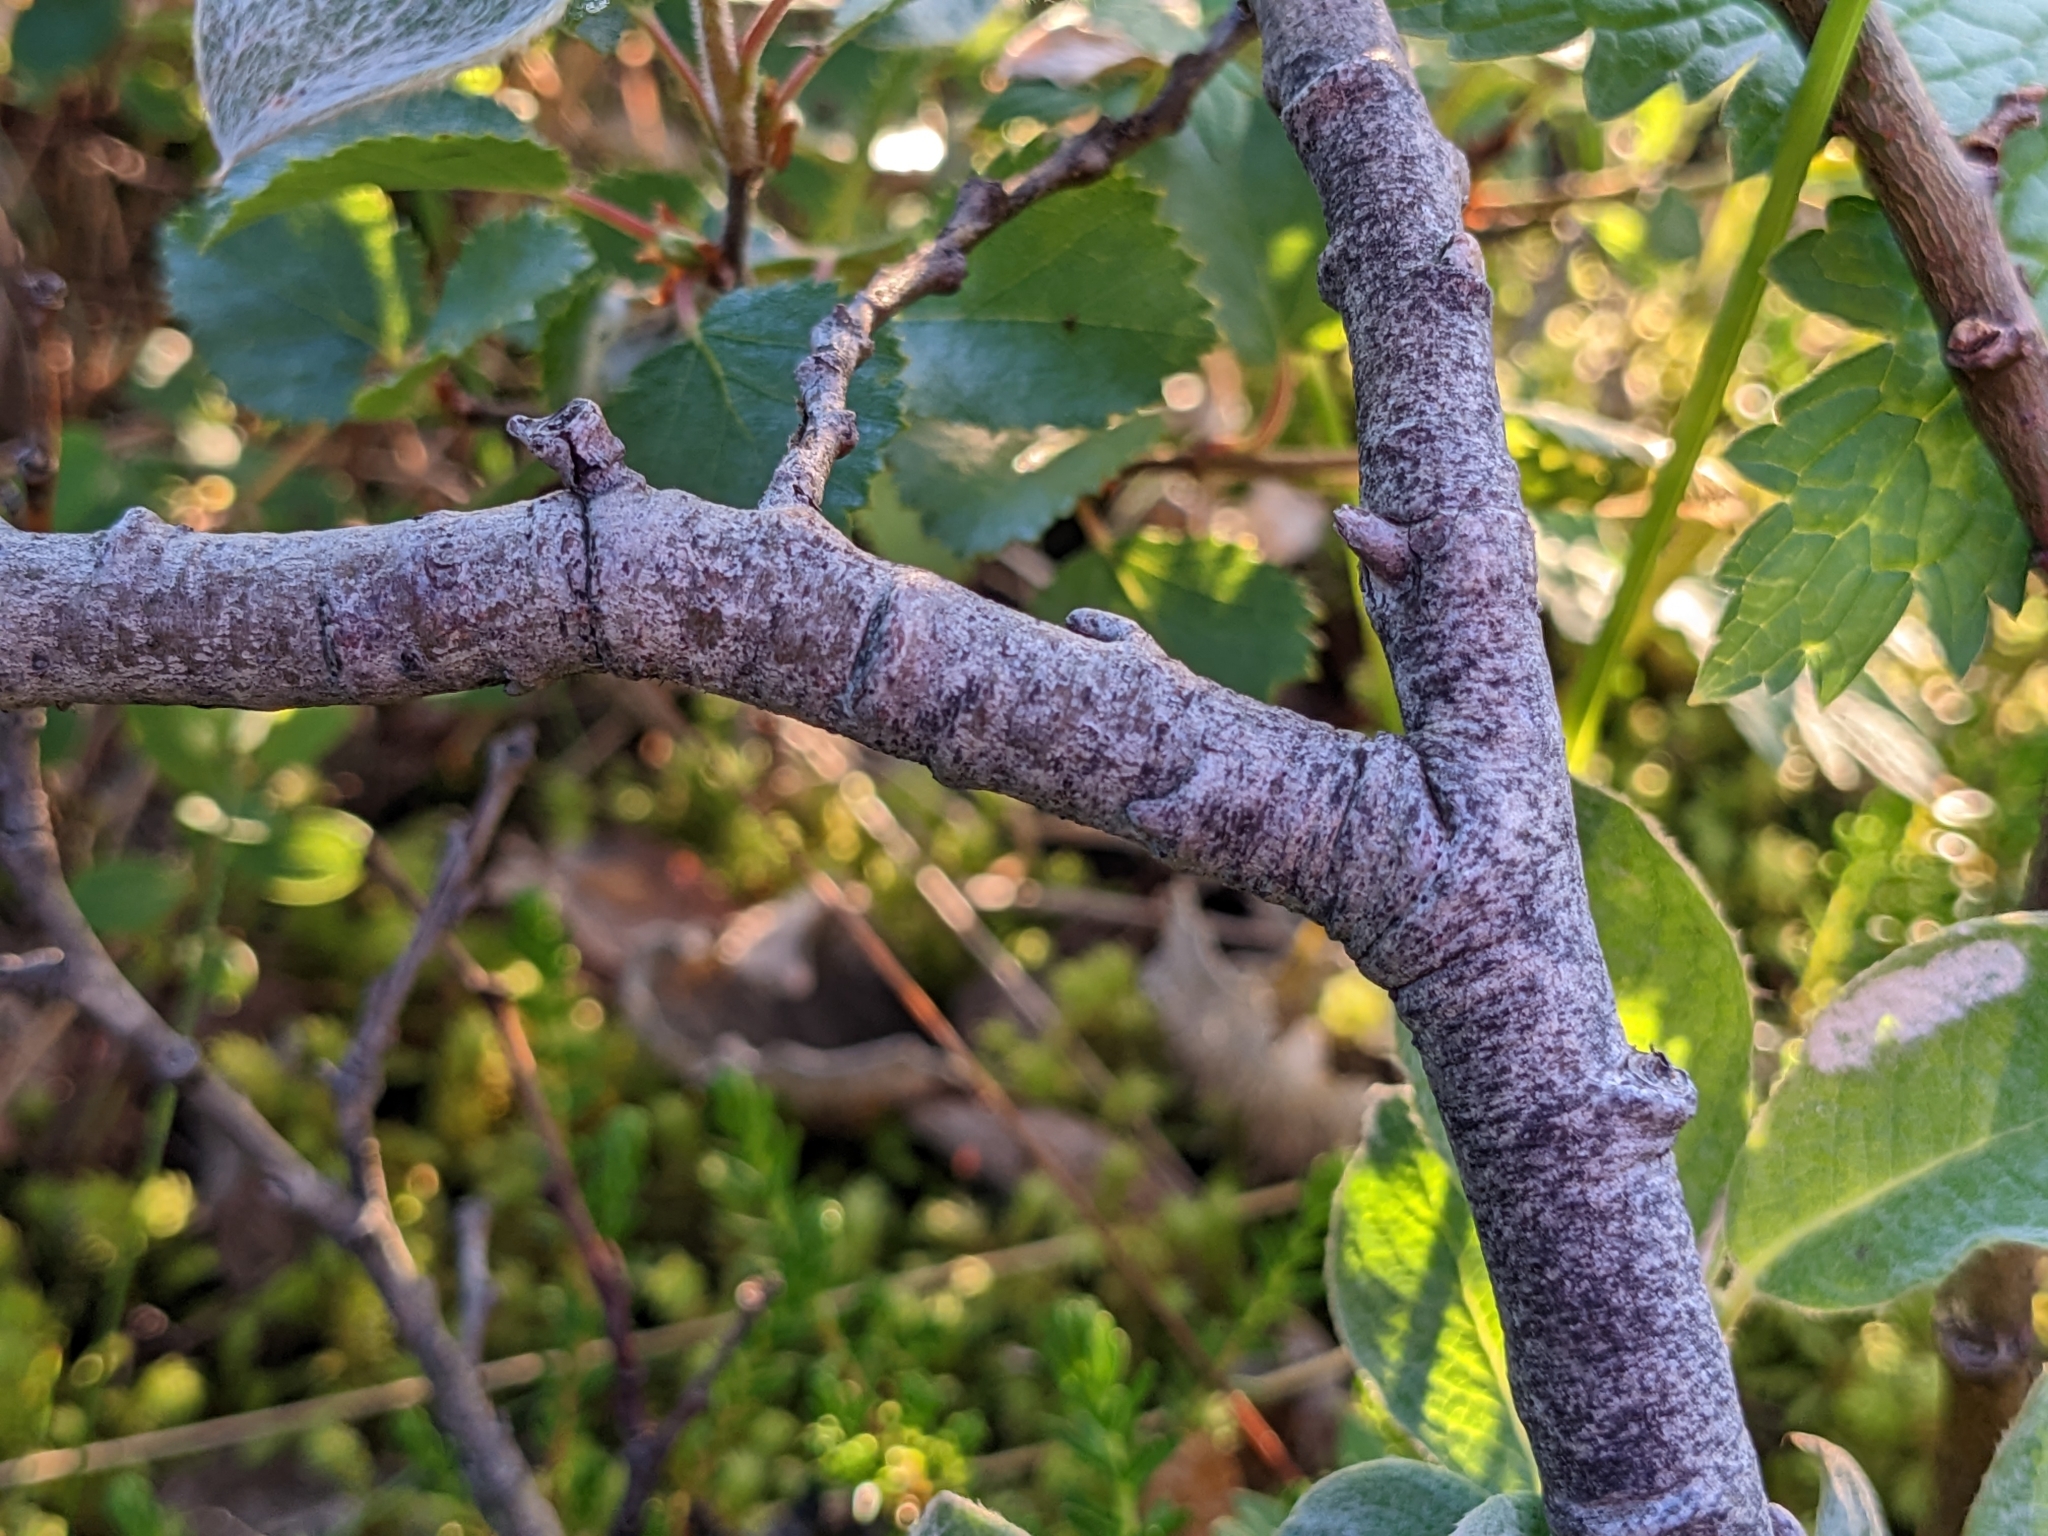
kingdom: Plantae
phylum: Tracheophyta
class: Magnoliopsida
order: Malpighiales
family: Salicaceae
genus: Salix
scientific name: Salix lanata
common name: Woolly willow
